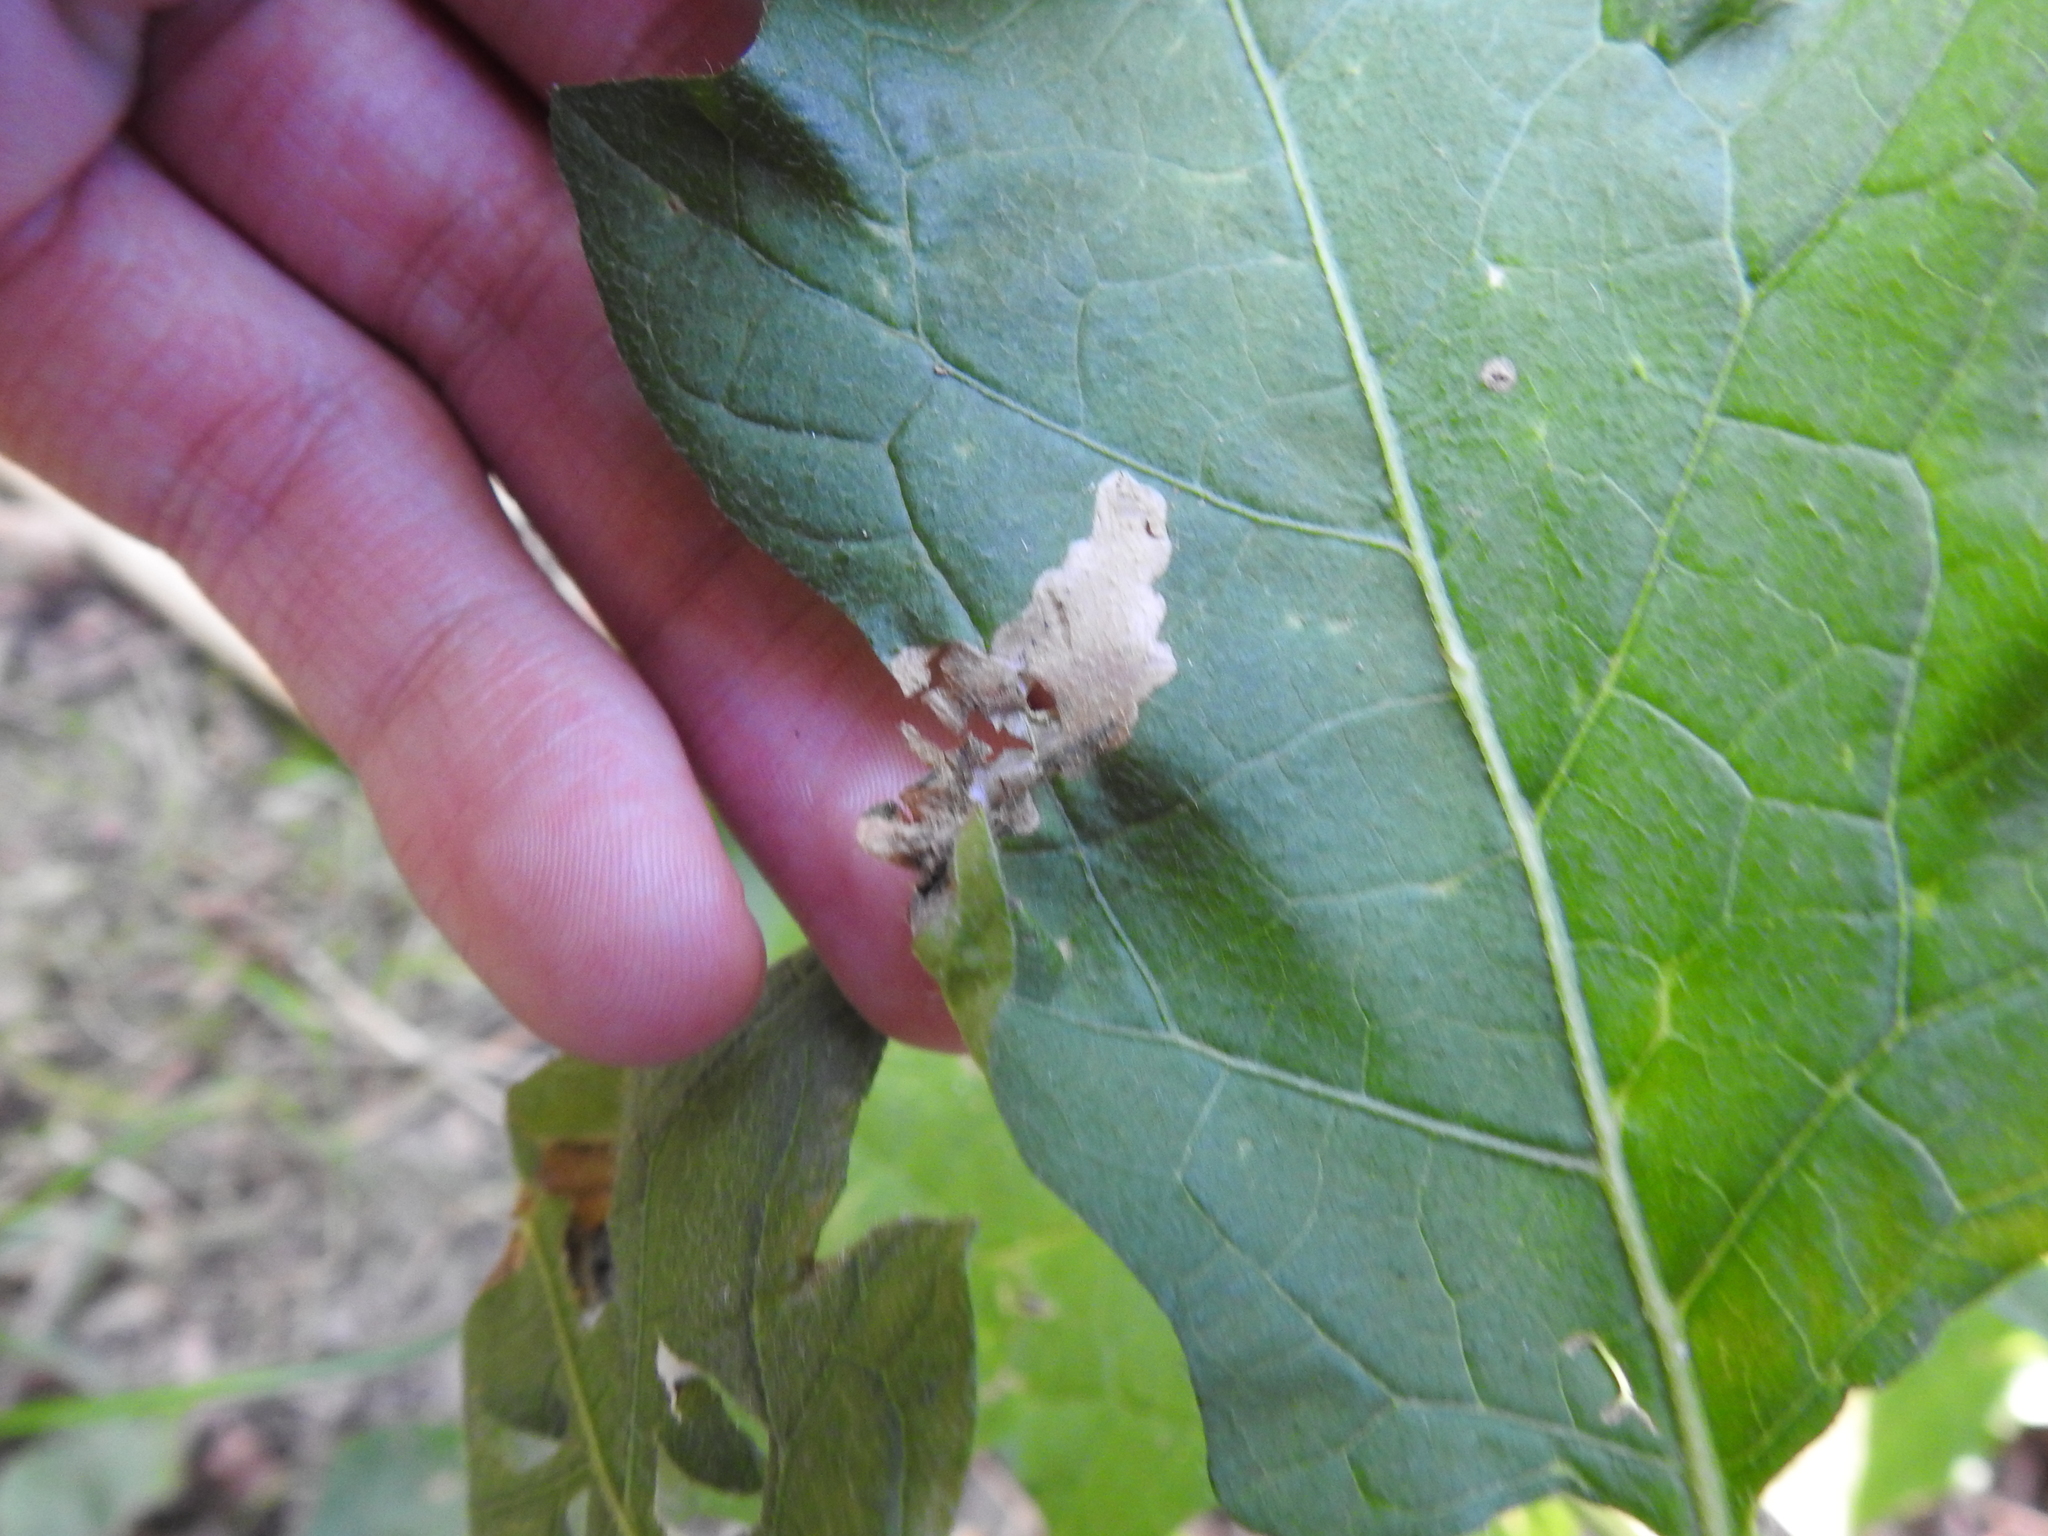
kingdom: Animalia
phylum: Arthropoda
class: Insecta
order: Lepidoptera
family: Gelechiidae
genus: Keiferia
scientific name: Keiferia inconspicuella
